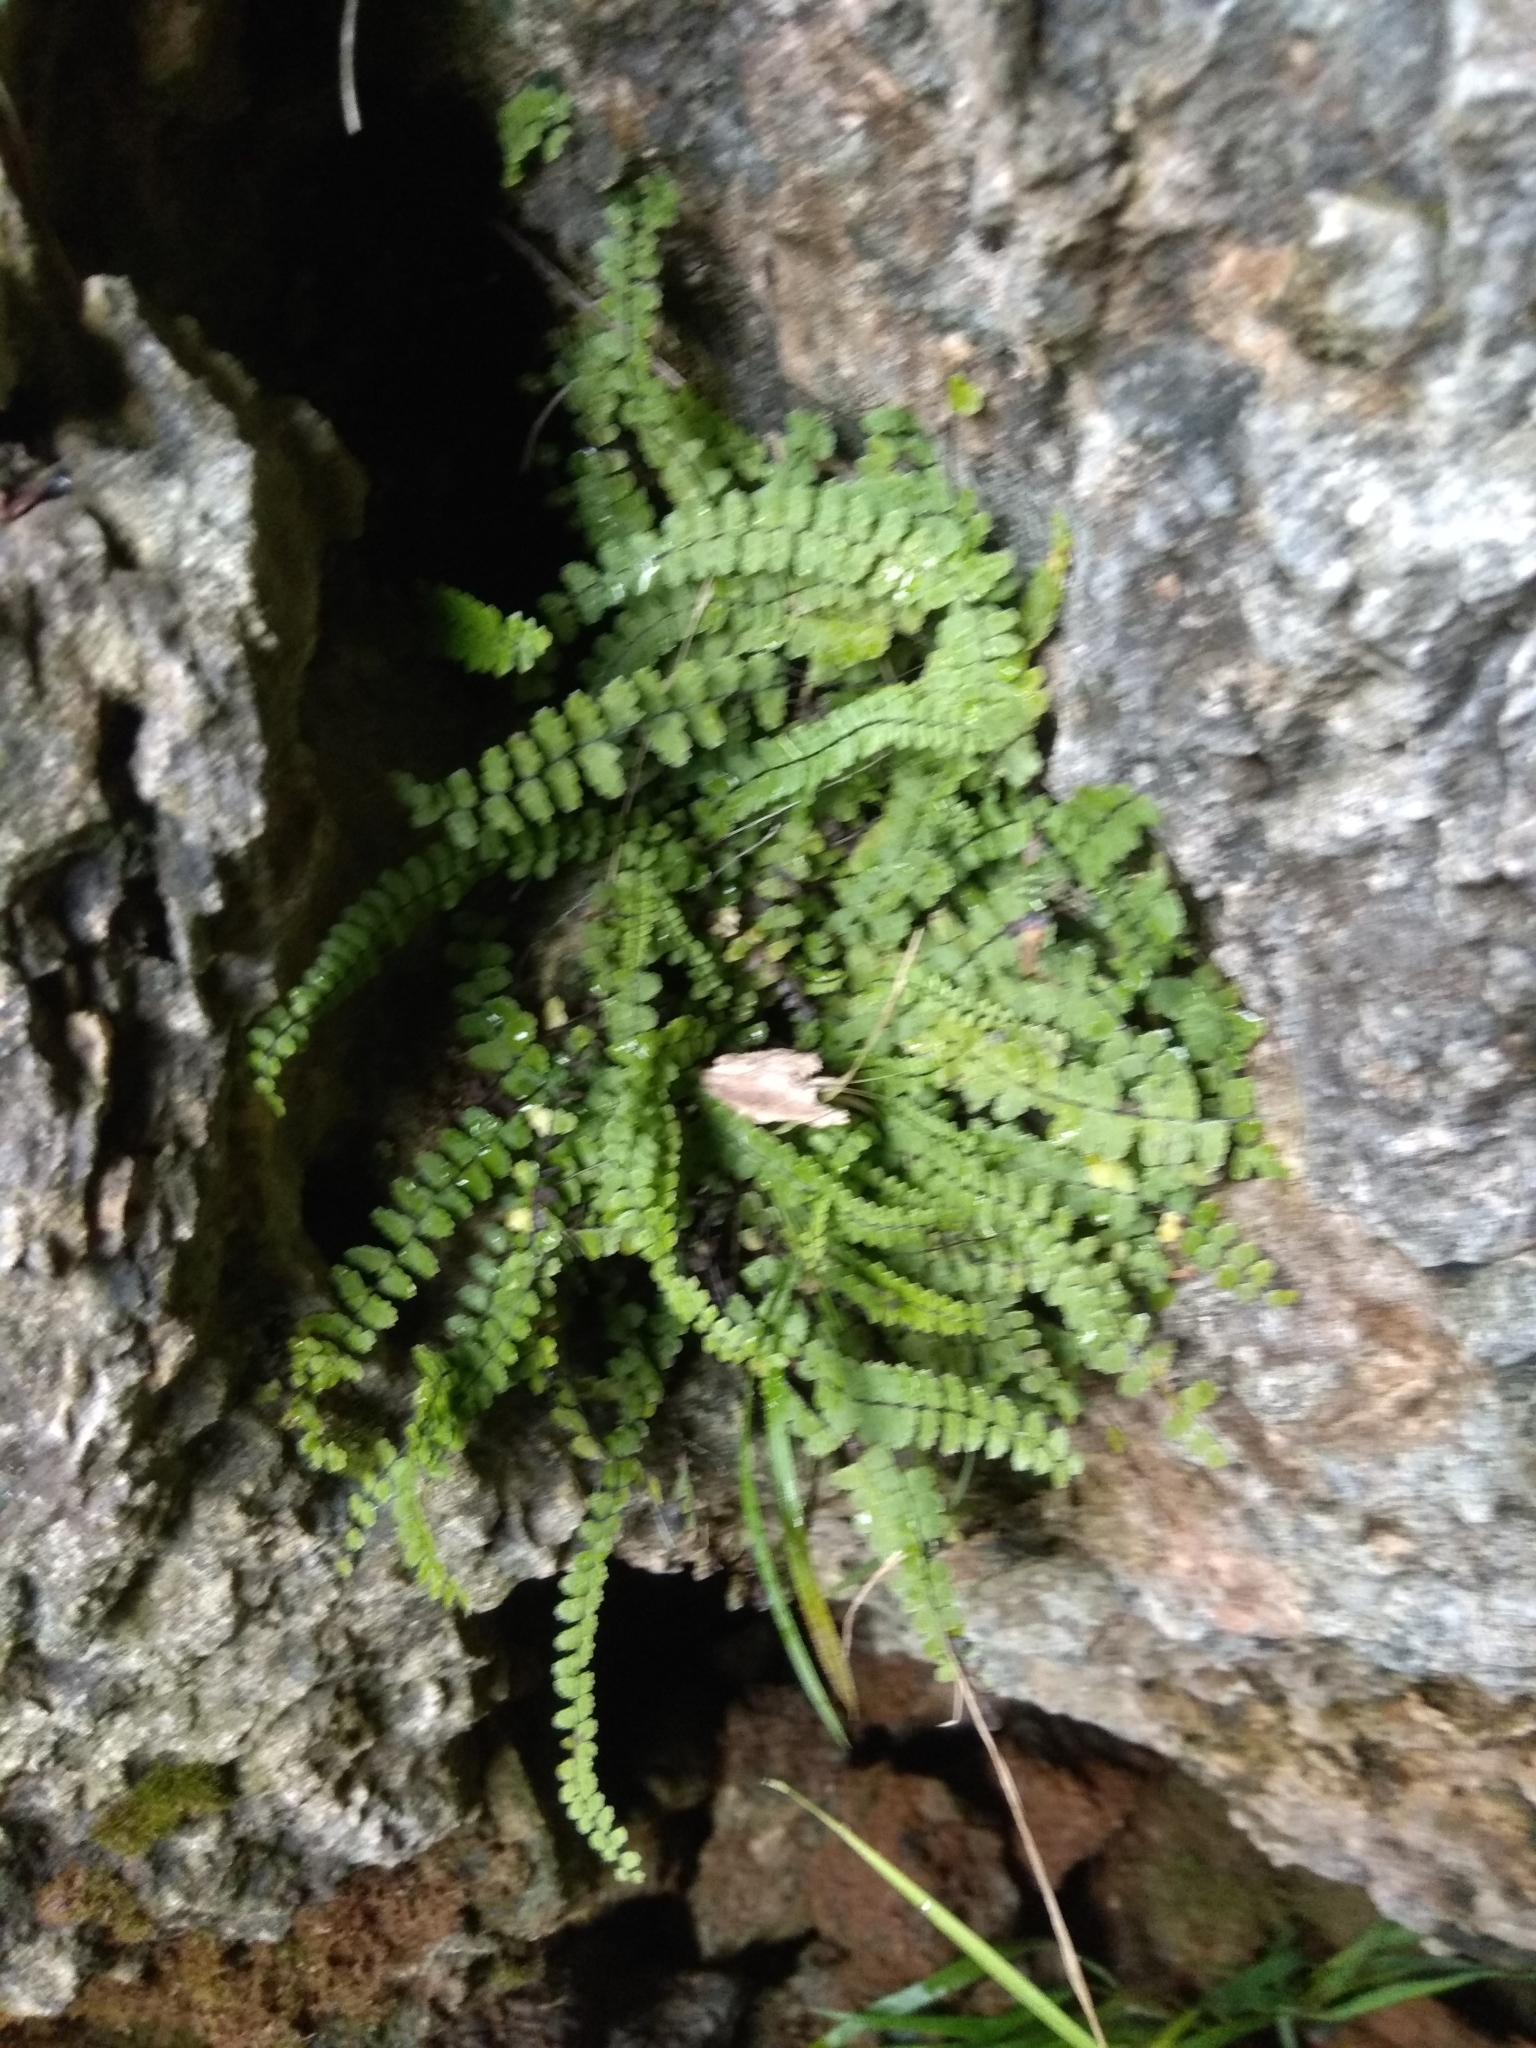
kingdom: Plantae
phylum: Tracheophyta
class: Polypodiopsida
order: Polypodiales
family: Aspleniaceae
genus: Asplenium
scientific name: Asplenium trichomanes
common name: Maidenhair spleenwort
